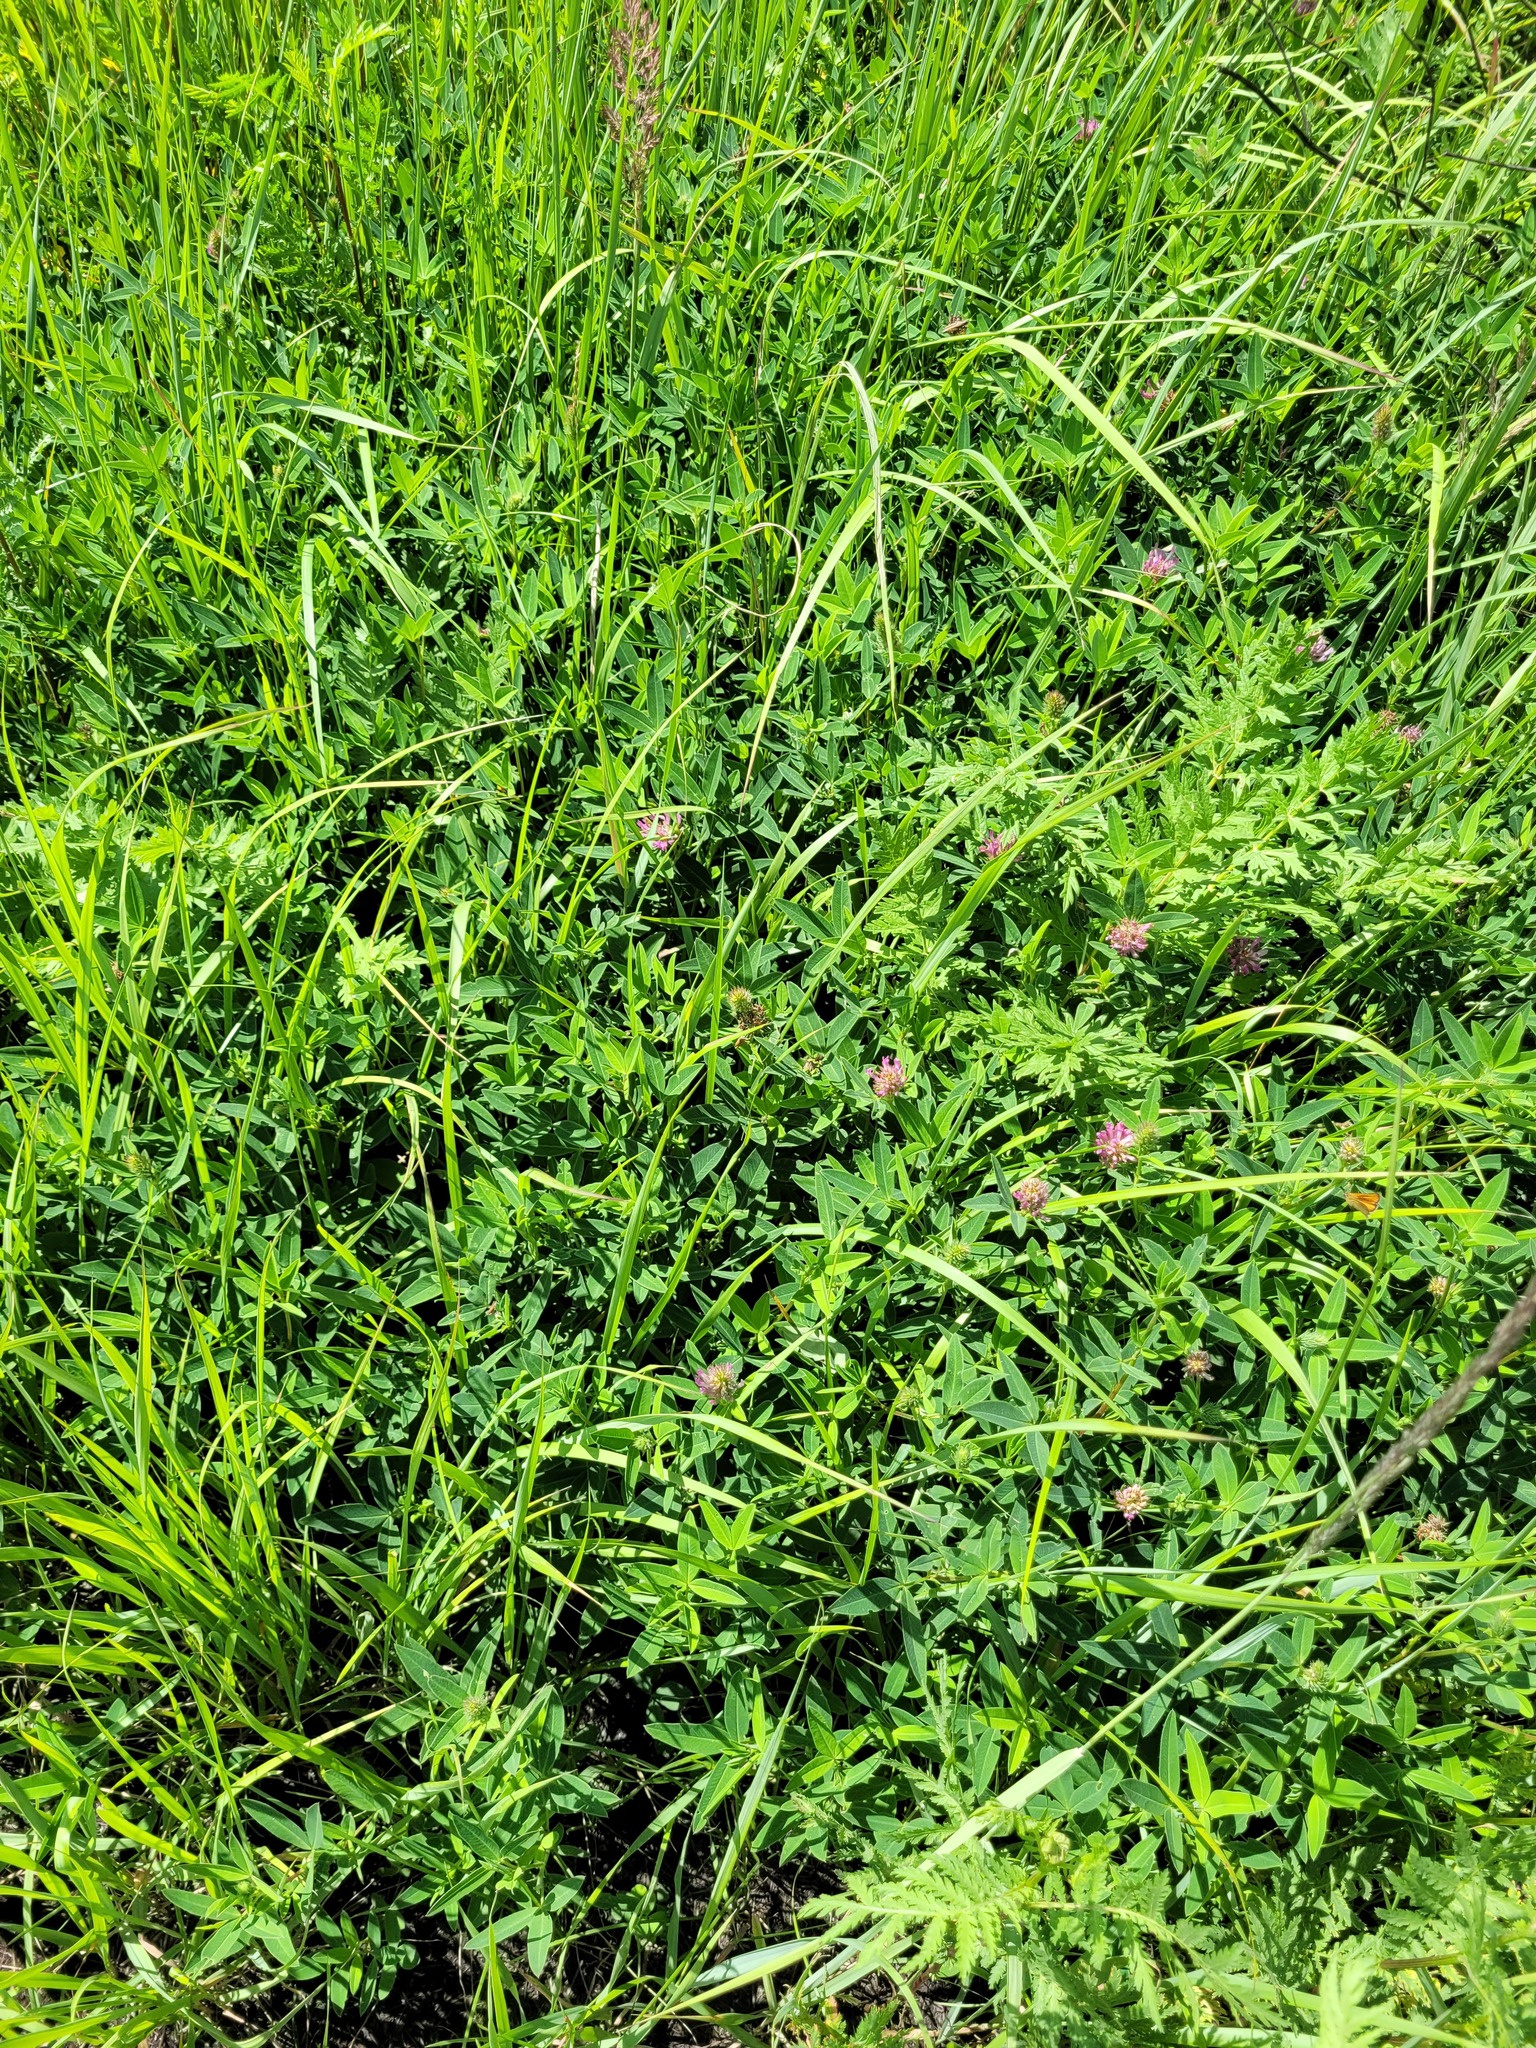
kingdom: Plantae
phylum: Tracheophyta
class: Magnoliopsida
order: Fabales
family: Fabaceae
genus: Trifolium
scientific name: Trifolium medium
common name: Zigzag clover
